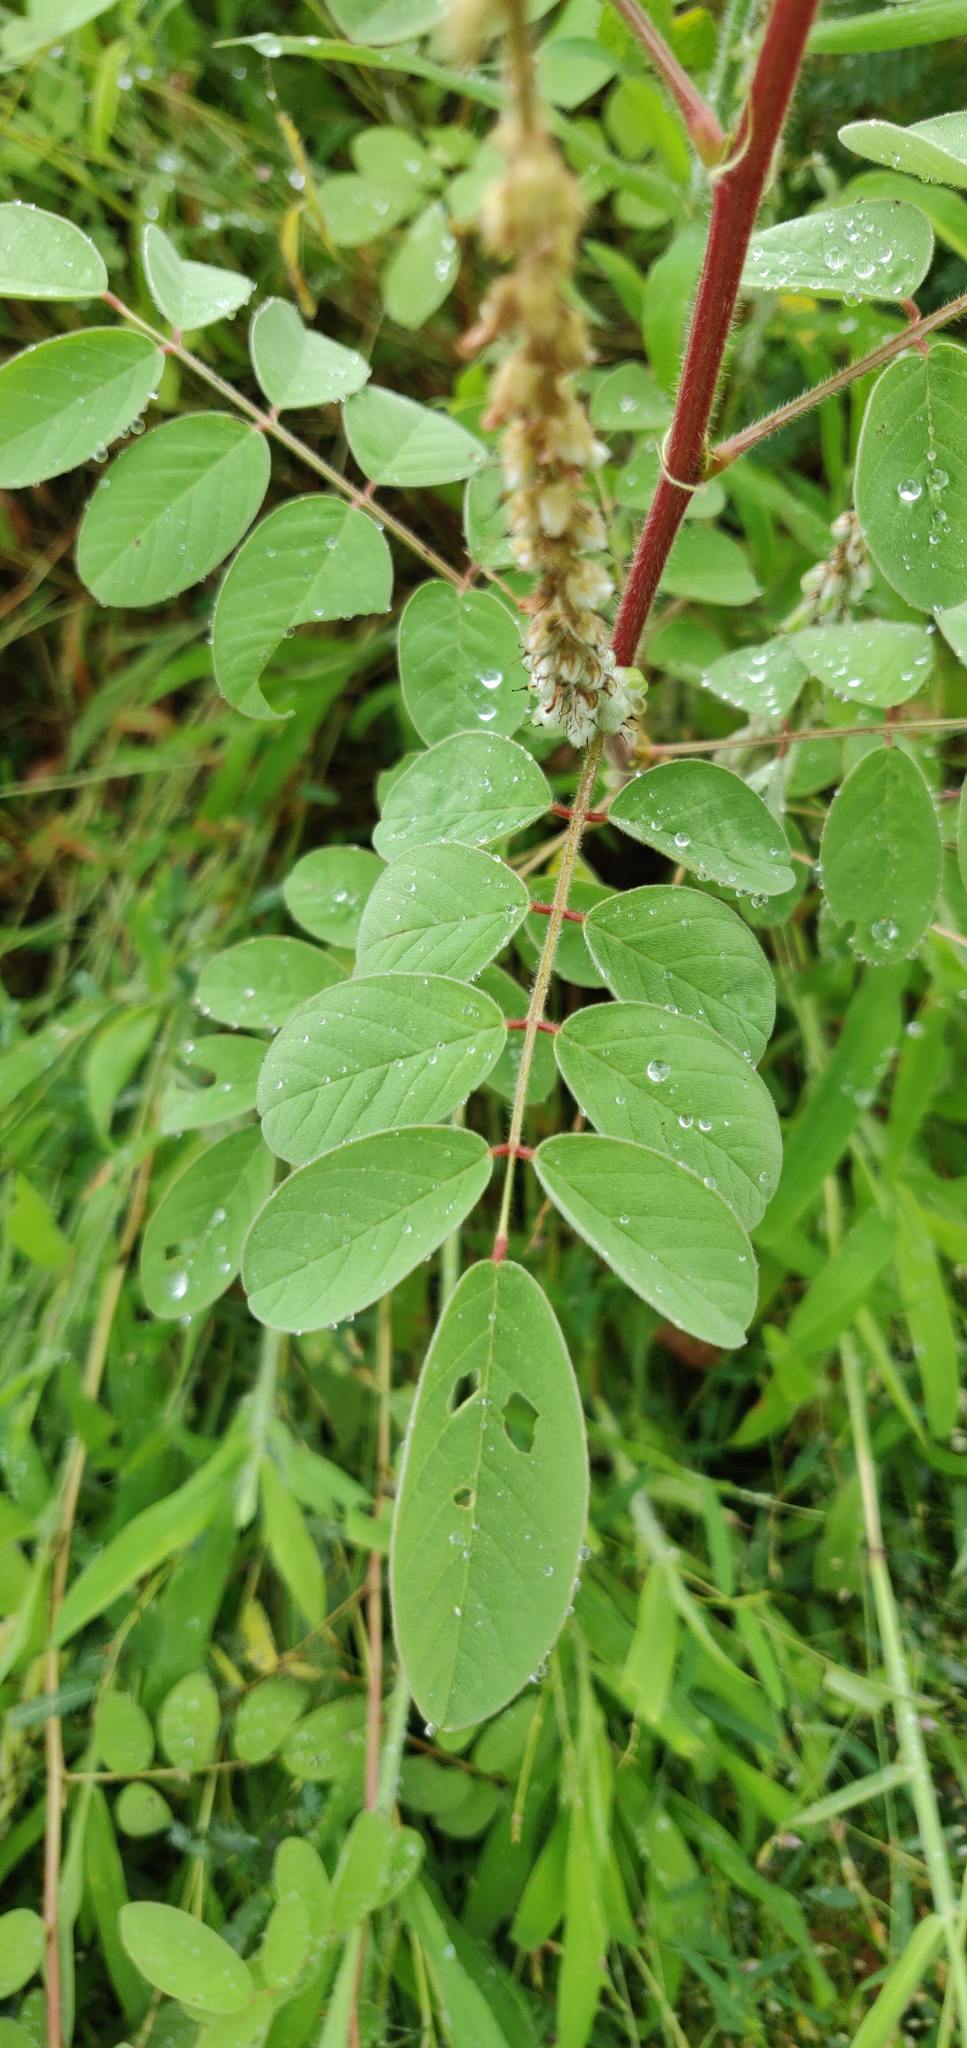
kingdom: Plantae
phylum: Tracheophyta
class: Magnoliopsida
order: Fabales
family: Fabaceae
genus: Indigofera
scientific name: Indigofera hirsuta
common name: Hairy indigo
